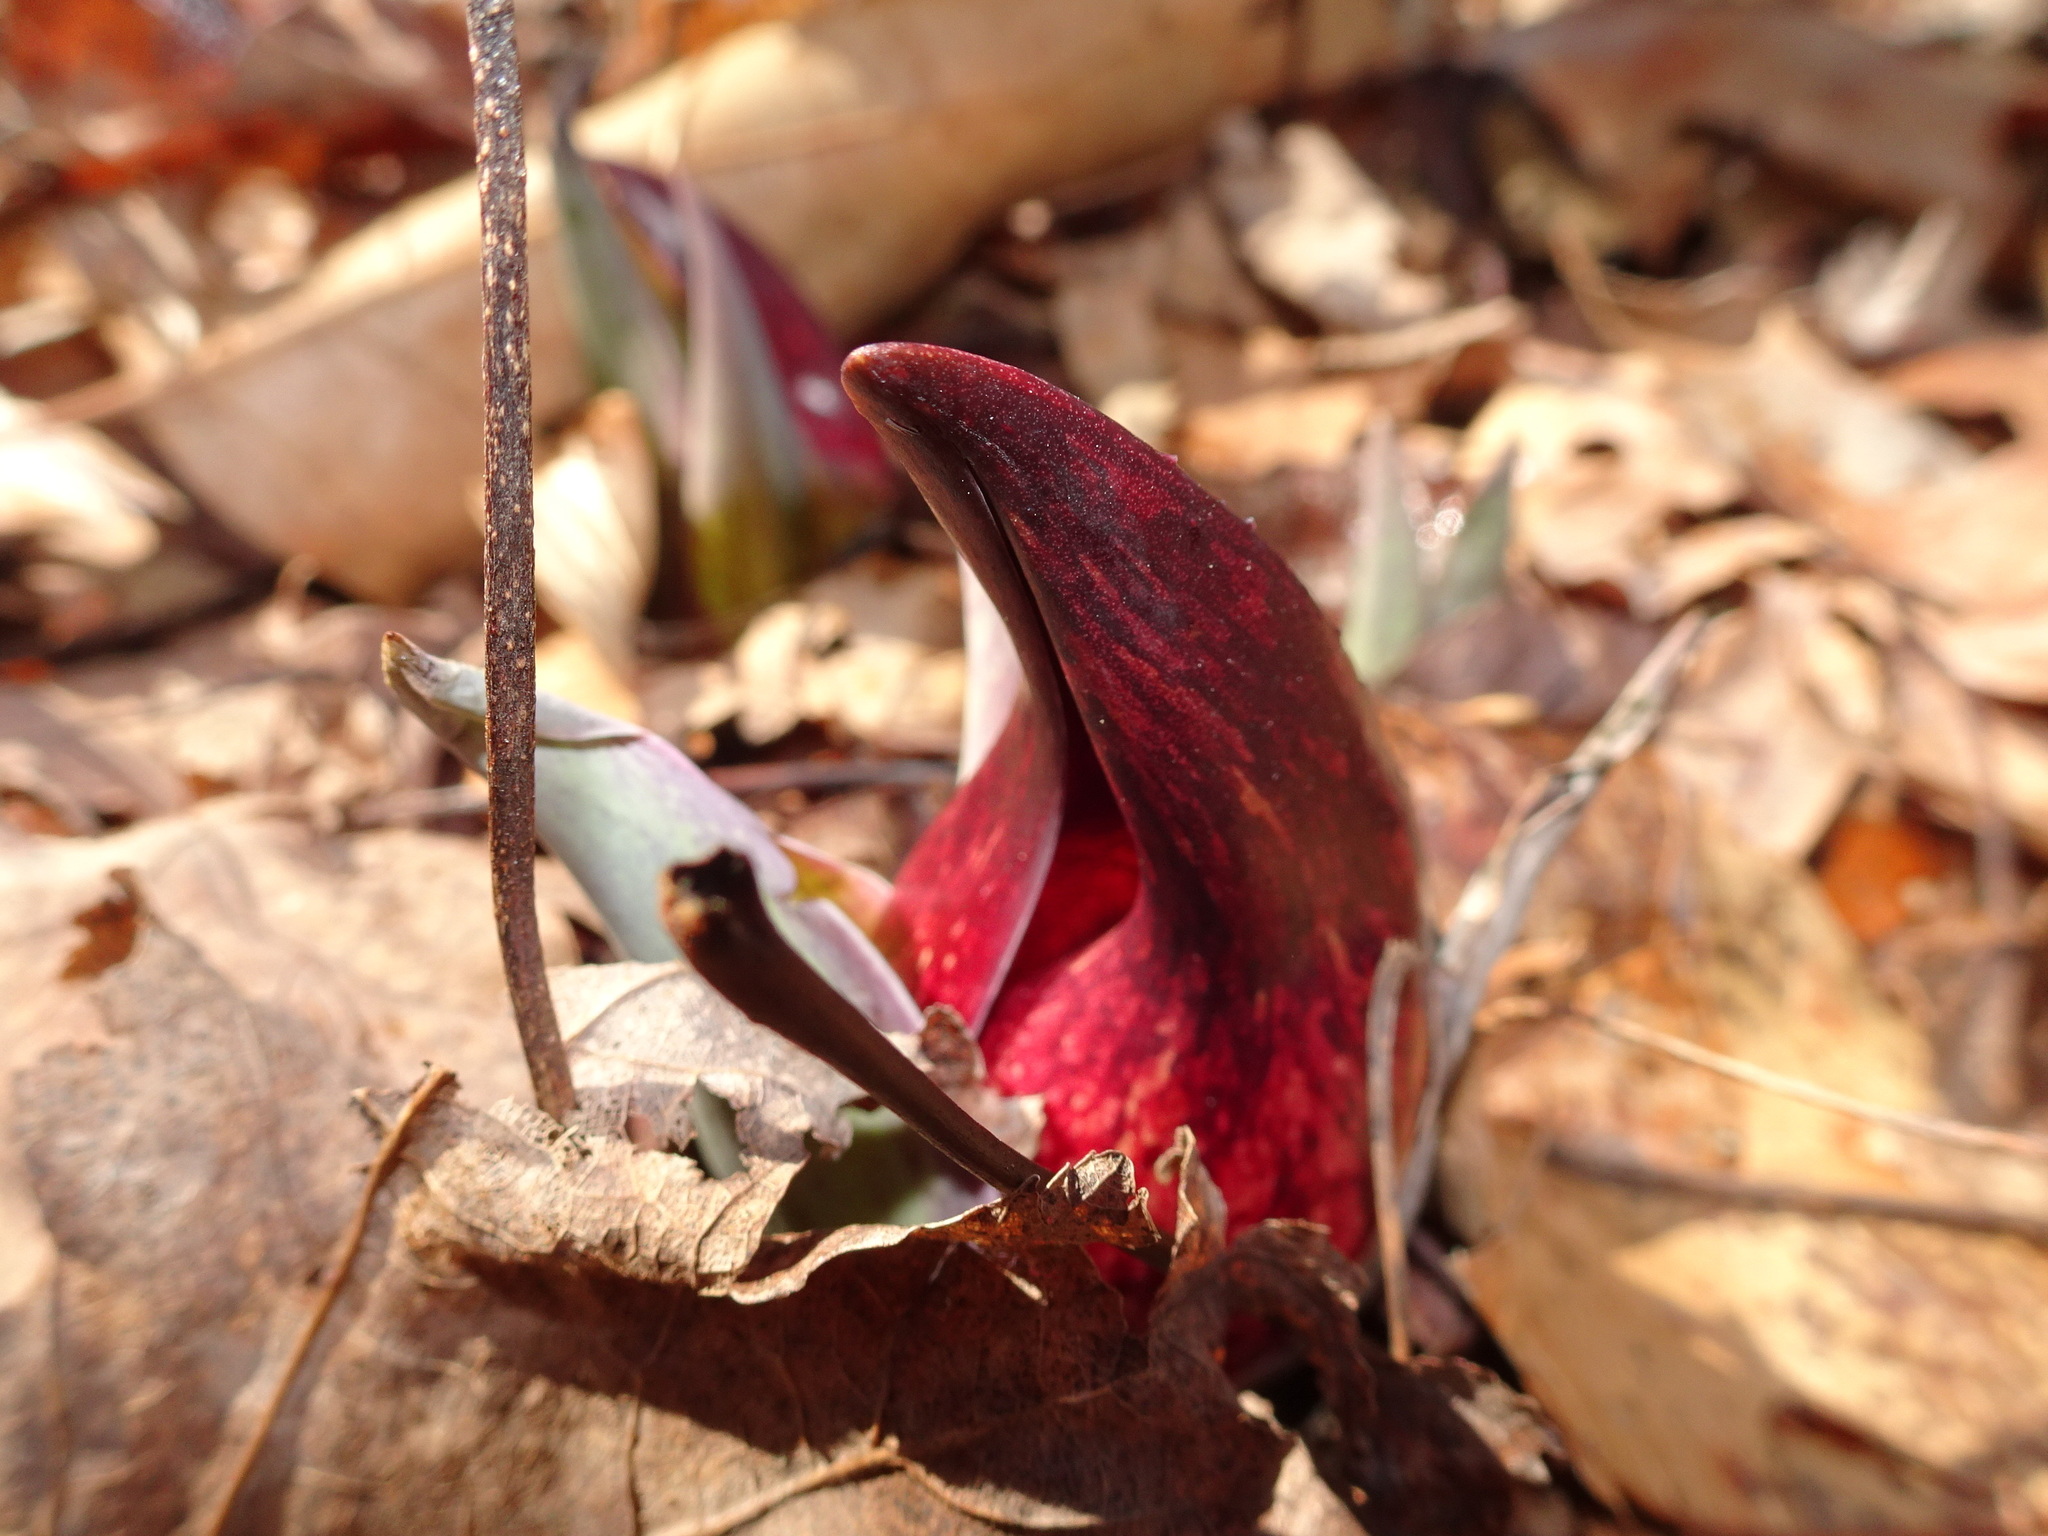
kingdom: Plantae
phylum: Tracheophyta
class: Liliopsida
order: Alismatales
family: Araceae
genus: Symplocarpus
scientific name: Symplocarpus foetidus
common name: Eastern skunk cabbage
